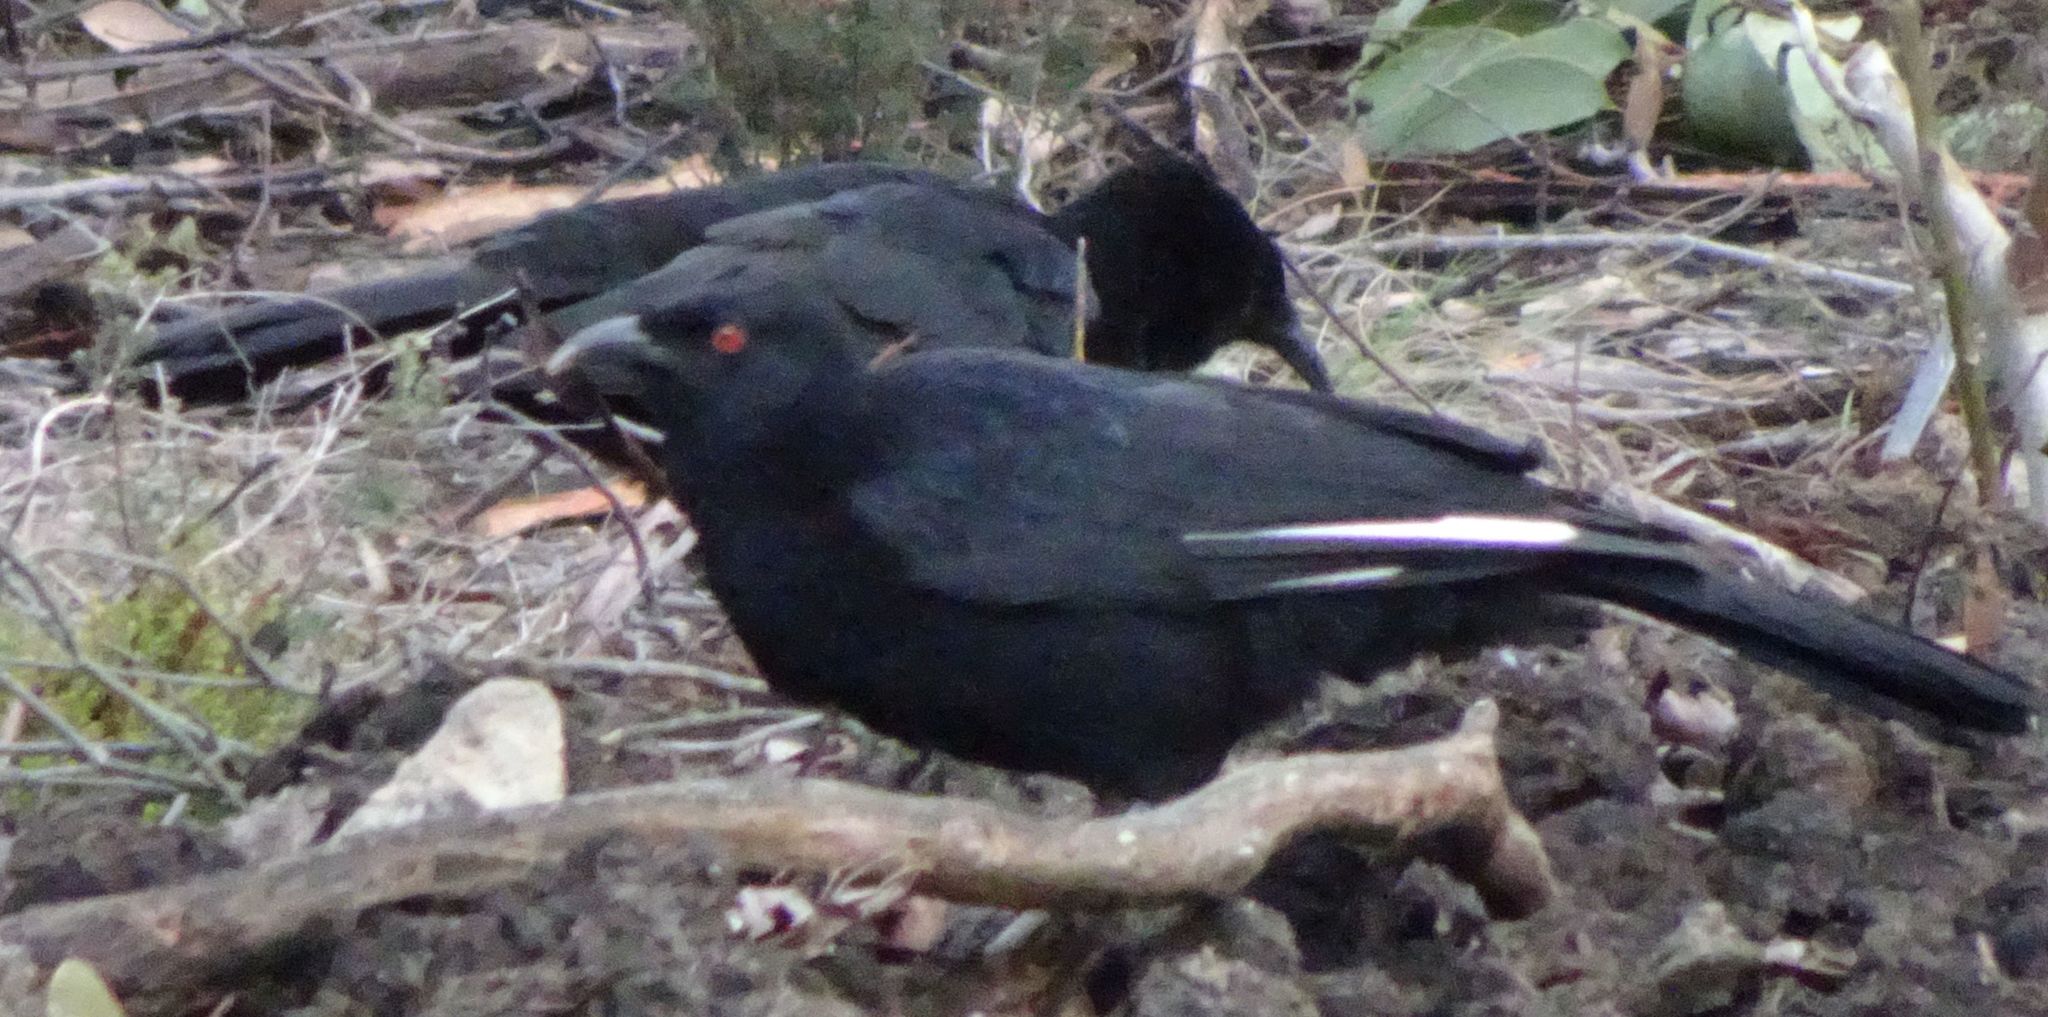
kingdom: Animalia
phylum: Chordata
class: Aves
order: Passeriformes
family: Corcoracidae
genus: Corcorax
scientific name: Corcorax melanoramphos
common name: White-winged chough
